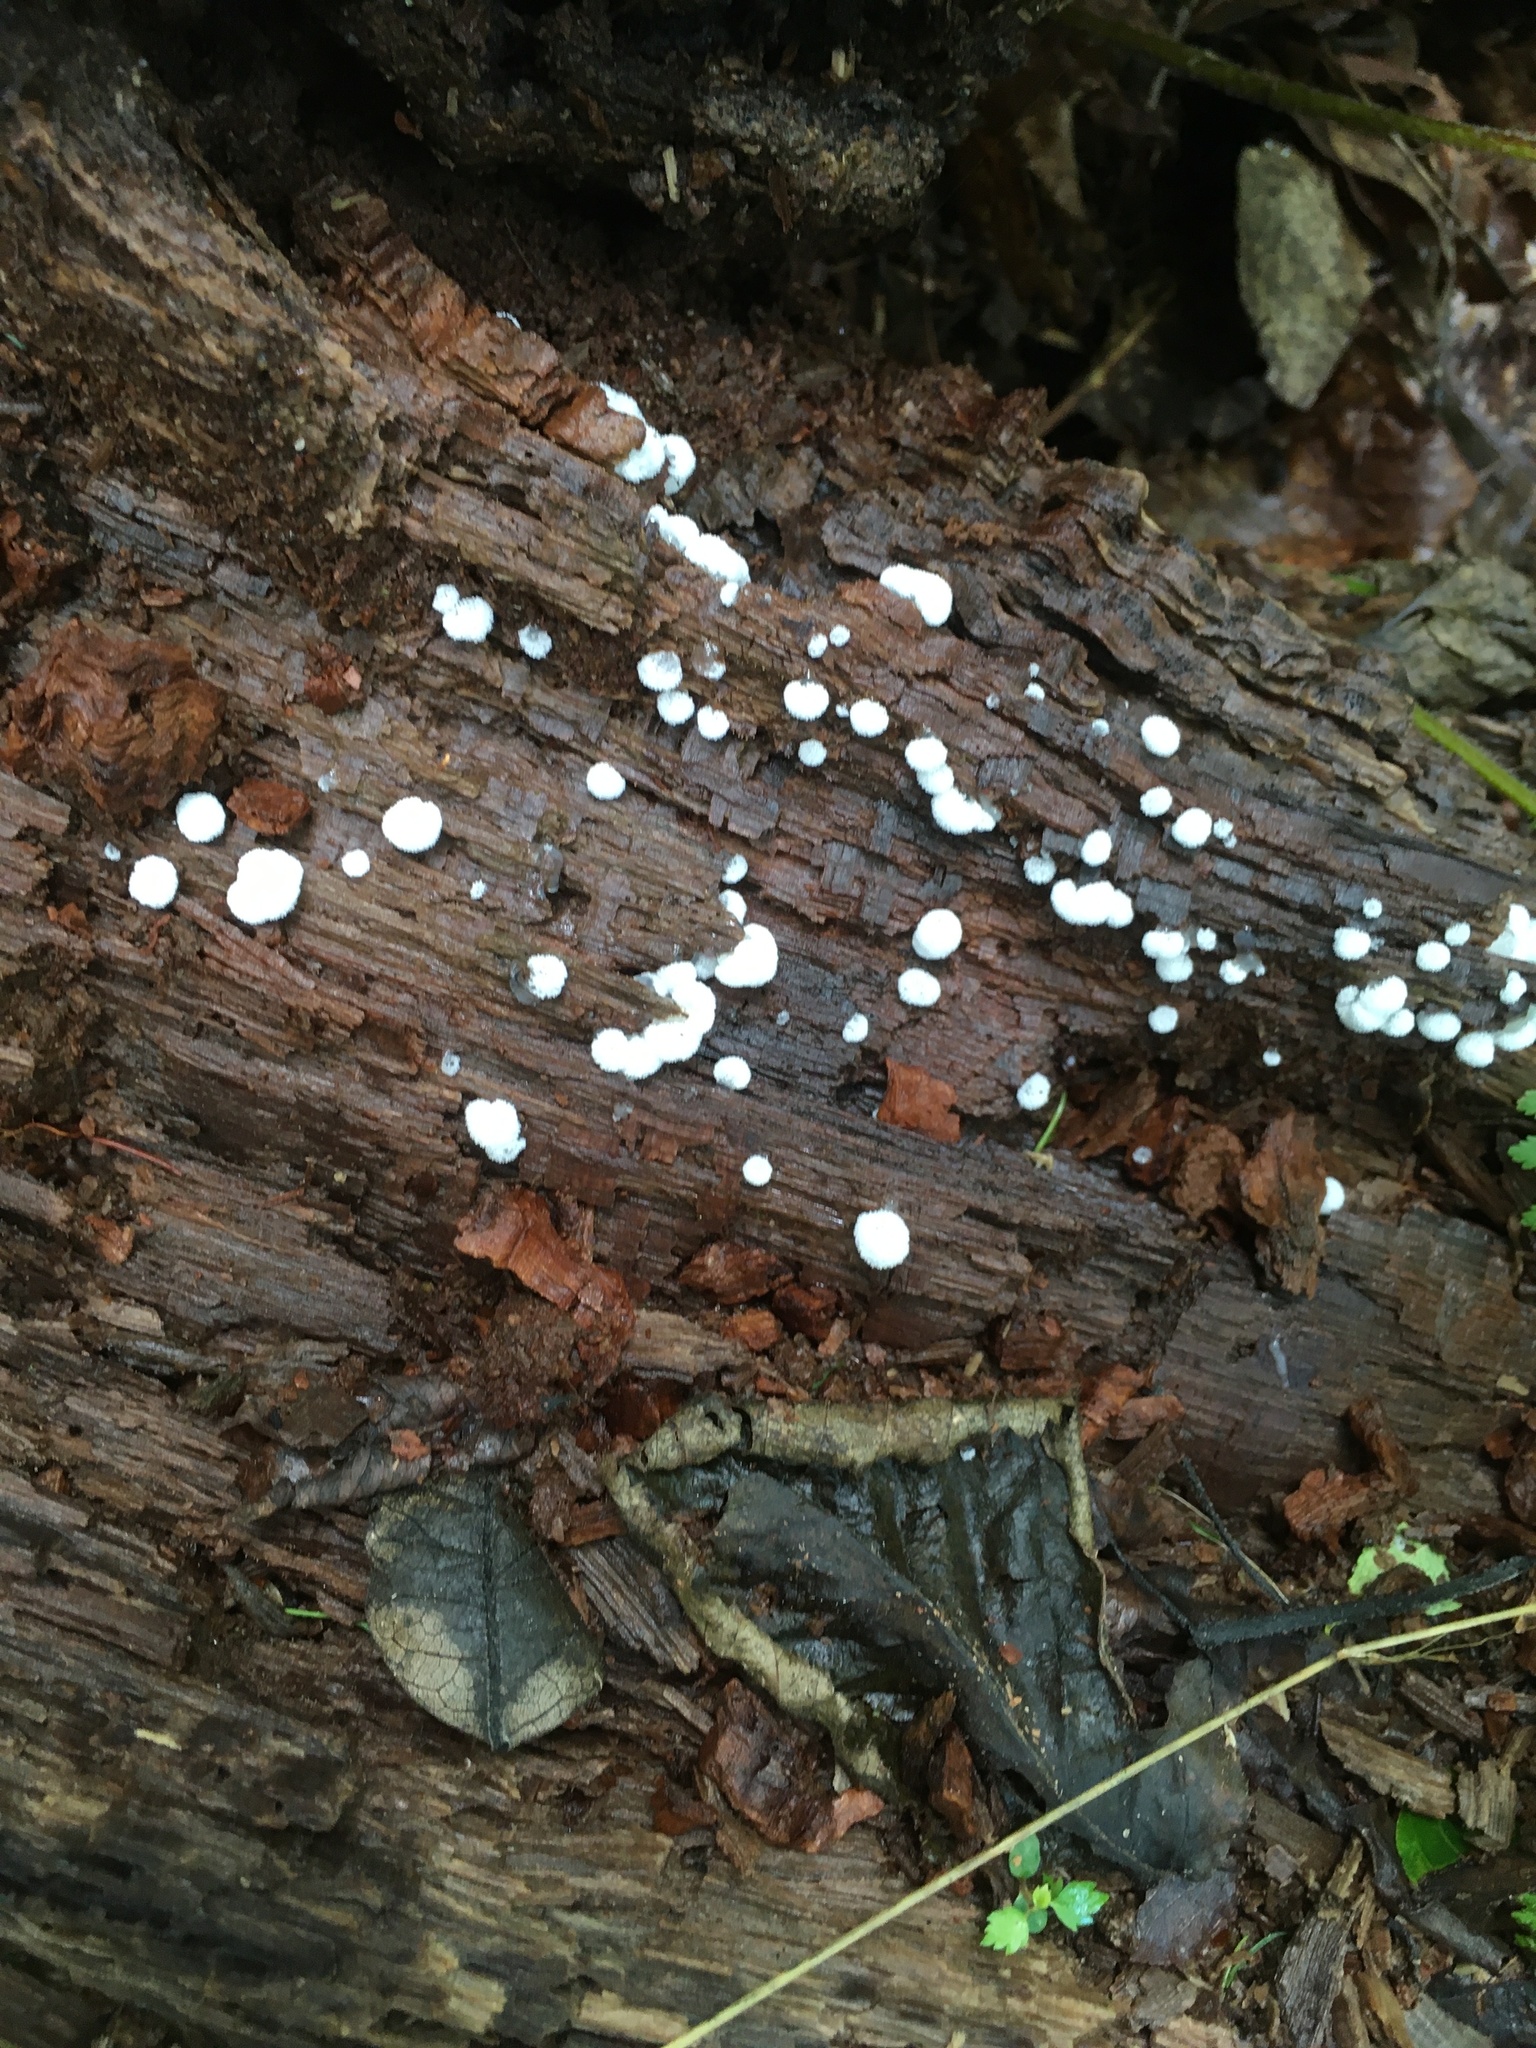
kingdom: Protozoa
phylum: Mycetozoa
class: Protosteliomycetes
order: Ceratiomyxales
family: Ceratiomyxaceae
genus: Ceratiomyxa
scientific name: Ceratiomyxa fruticulosa
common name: Honeycomb coral slime mold
